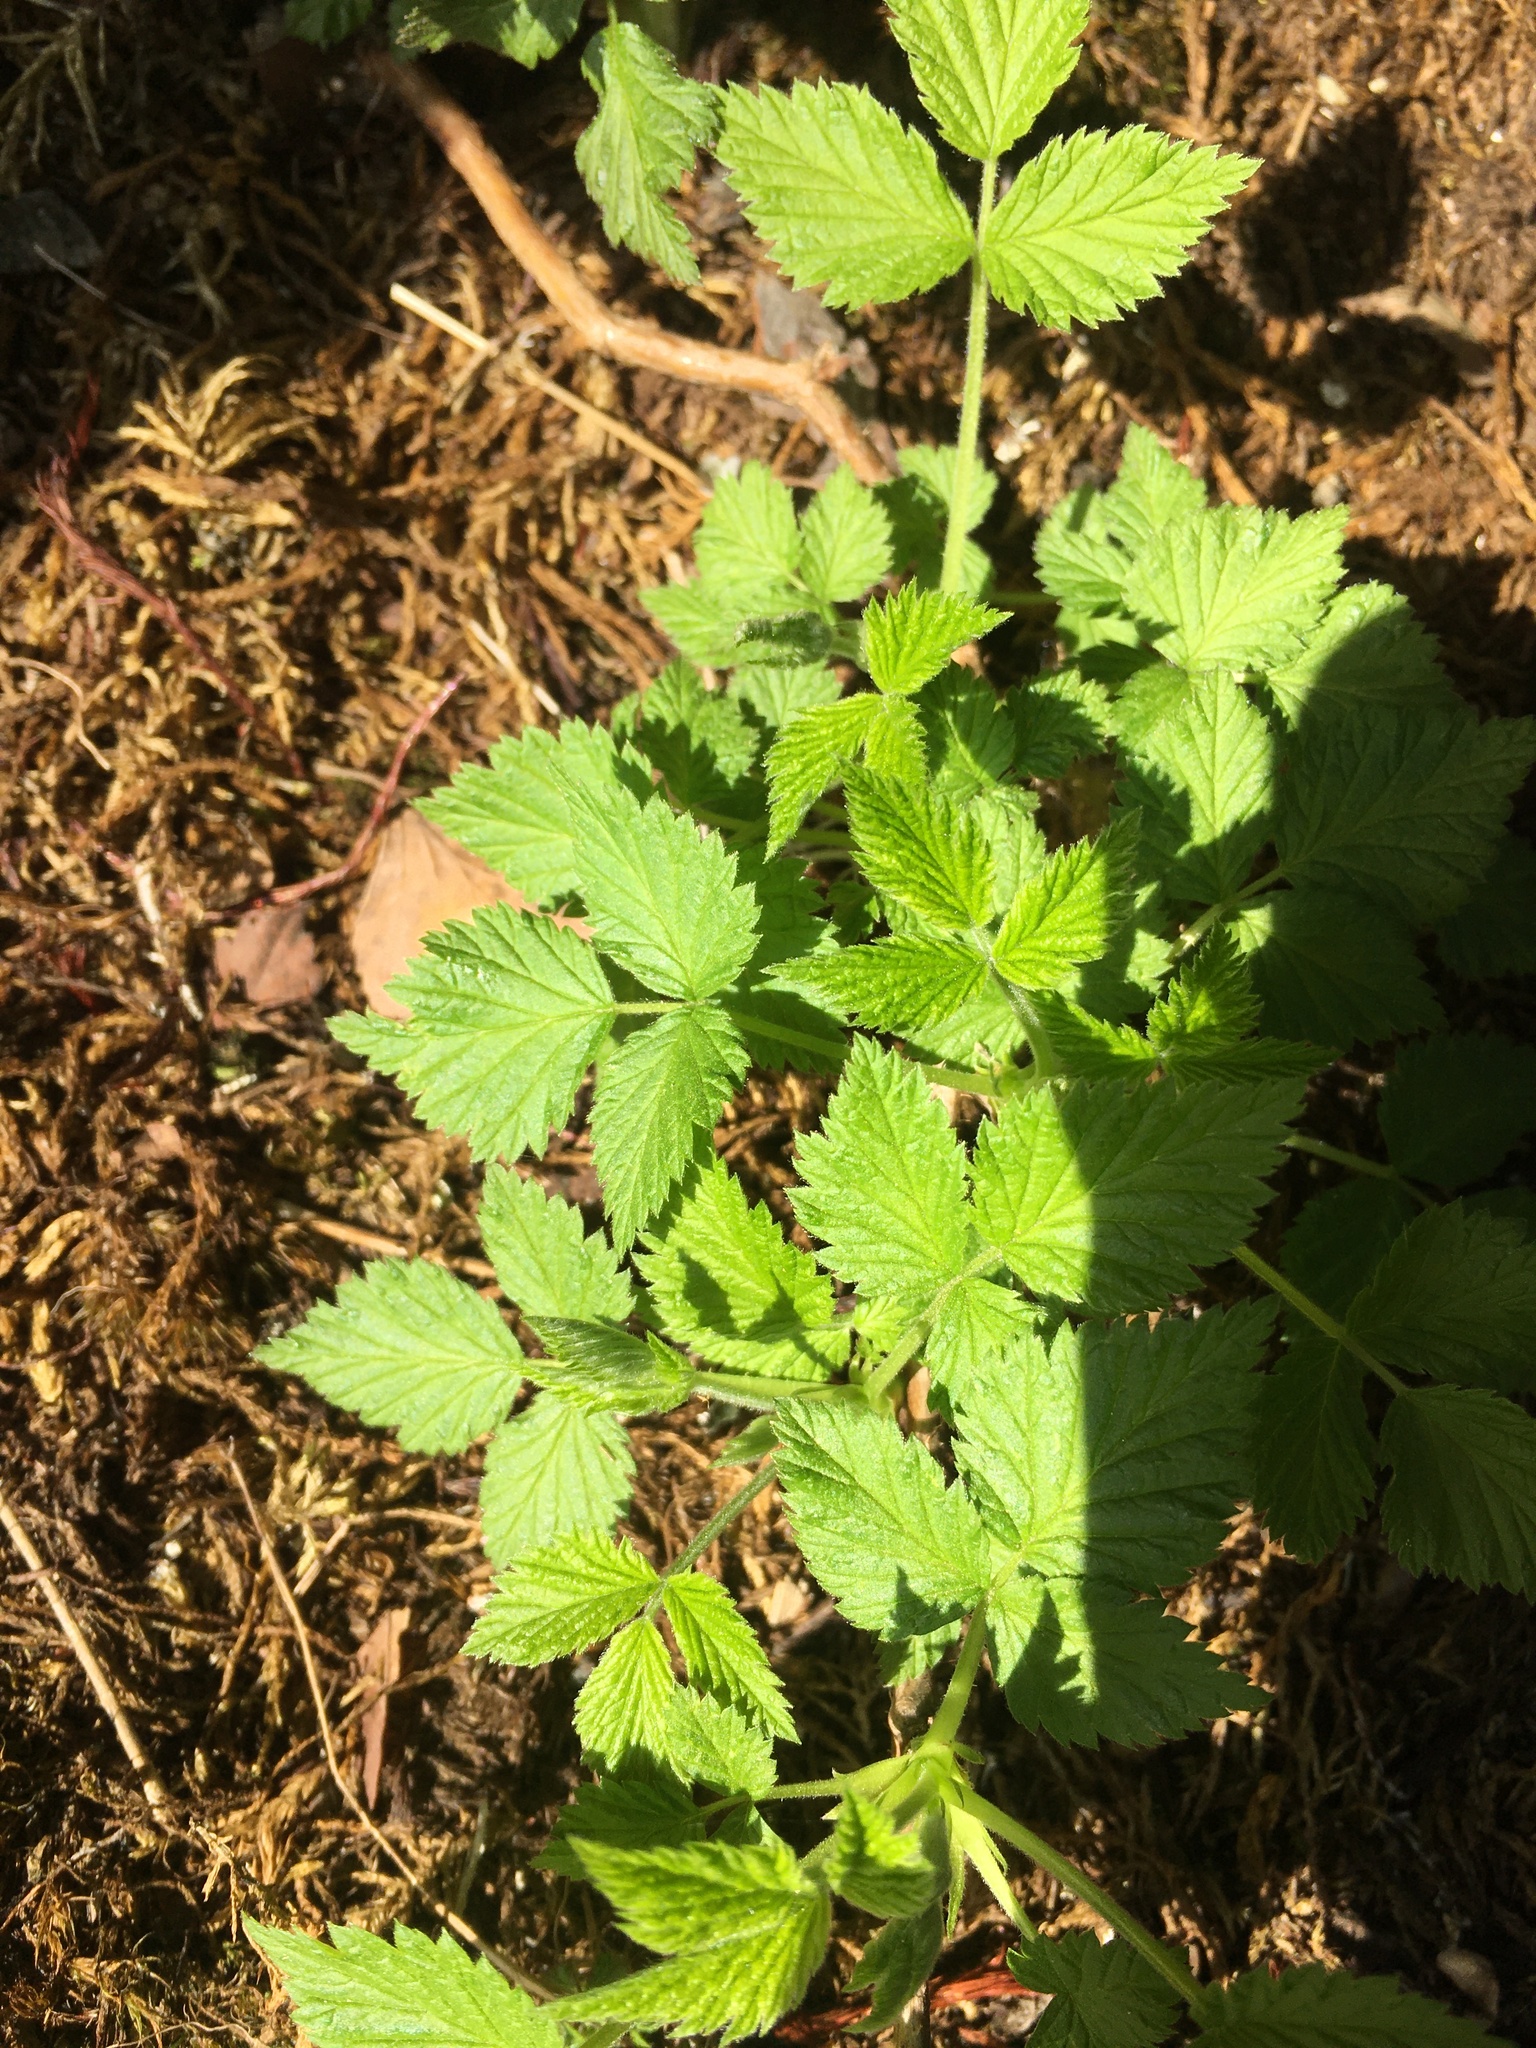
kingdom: Plantae
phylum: Tracheophyta
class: Magnoliopsida
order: Rosales
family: Rosaceae
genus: Rubus
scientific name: Rubus idaeus
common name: Raspberry
